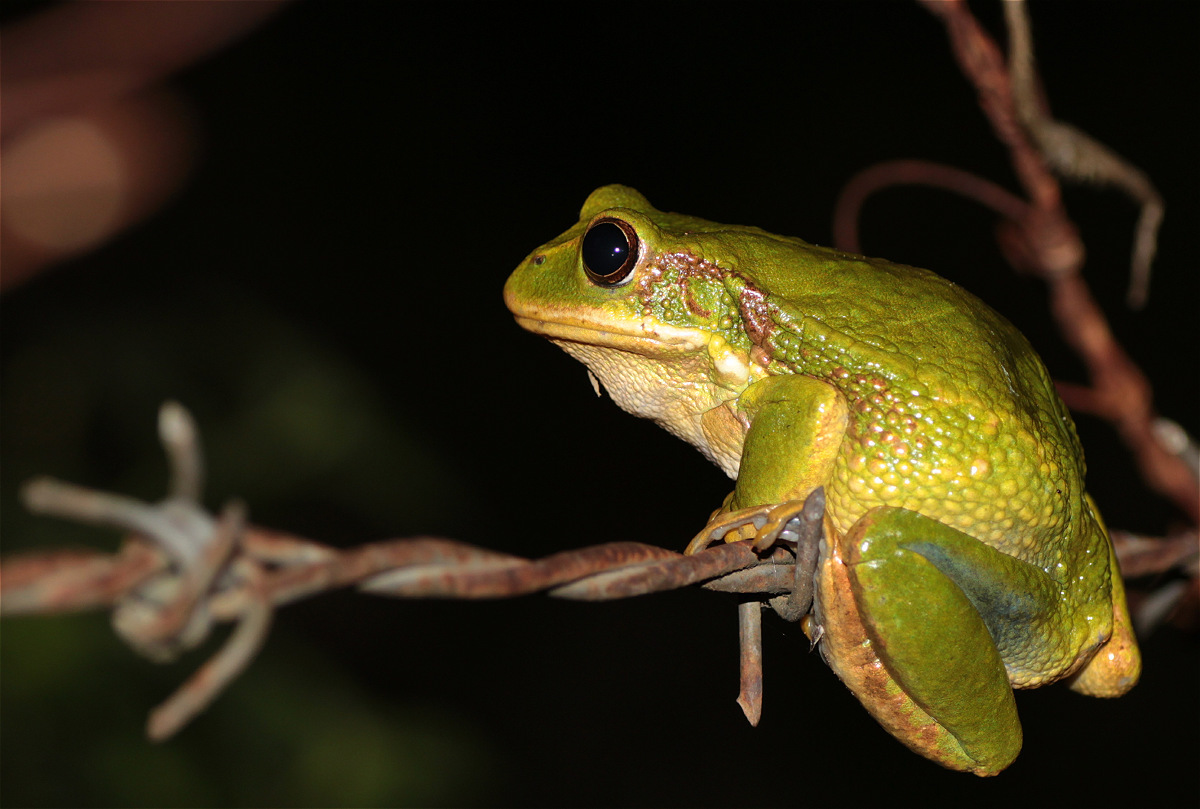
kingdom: Animalia
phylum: Chordata
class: Amphibia
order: Anura
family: Hemiphractidae
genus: Gastrotheca
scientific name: Gastrotheca cuencana
